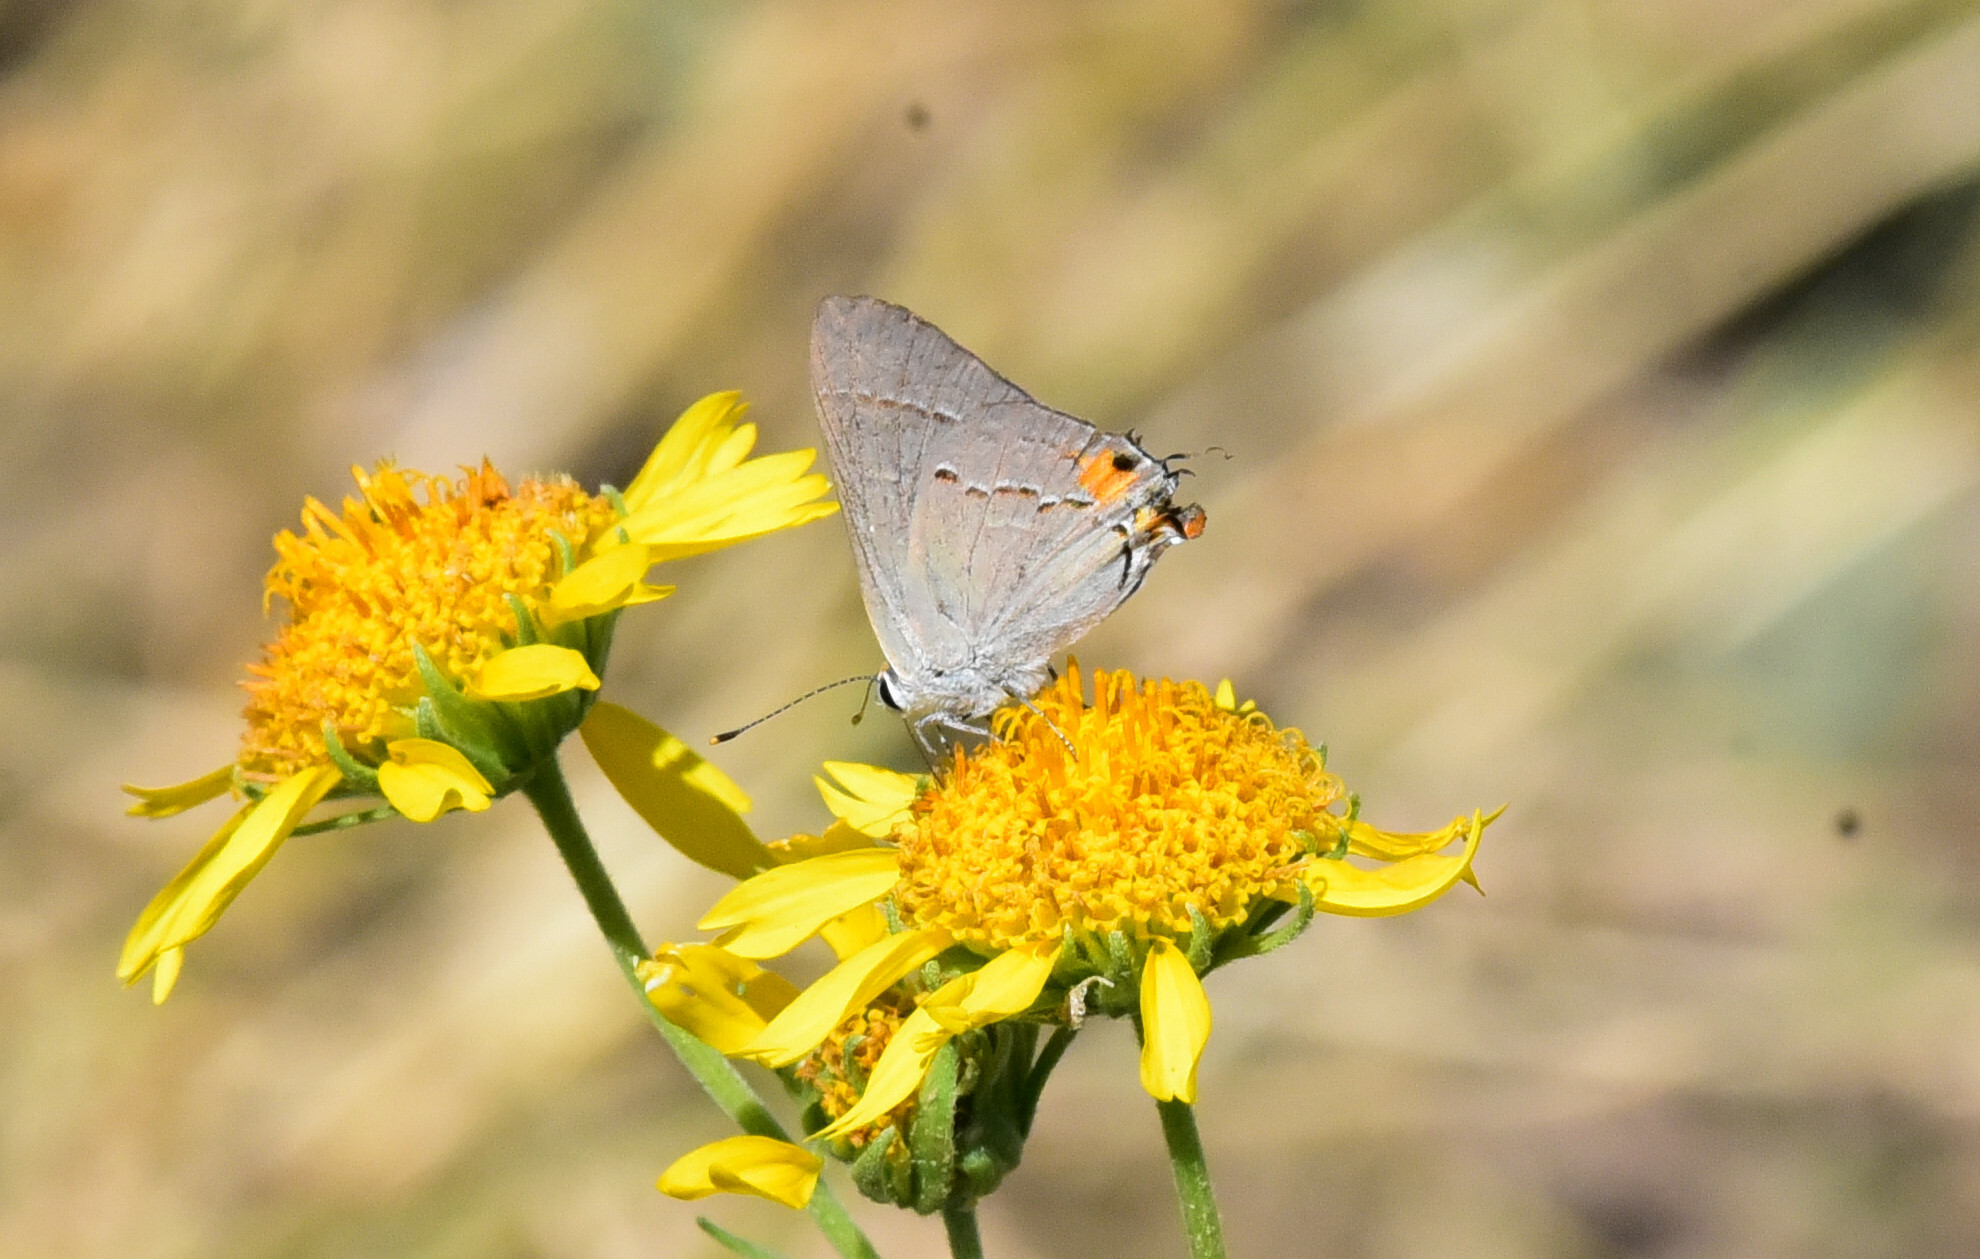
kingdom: Animalia
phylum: Arthropoda
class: Insecta
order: Lepidoptera
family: Lycaenidae
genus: Strymon
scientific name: Strymon melinus
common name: Gray hairstreak
